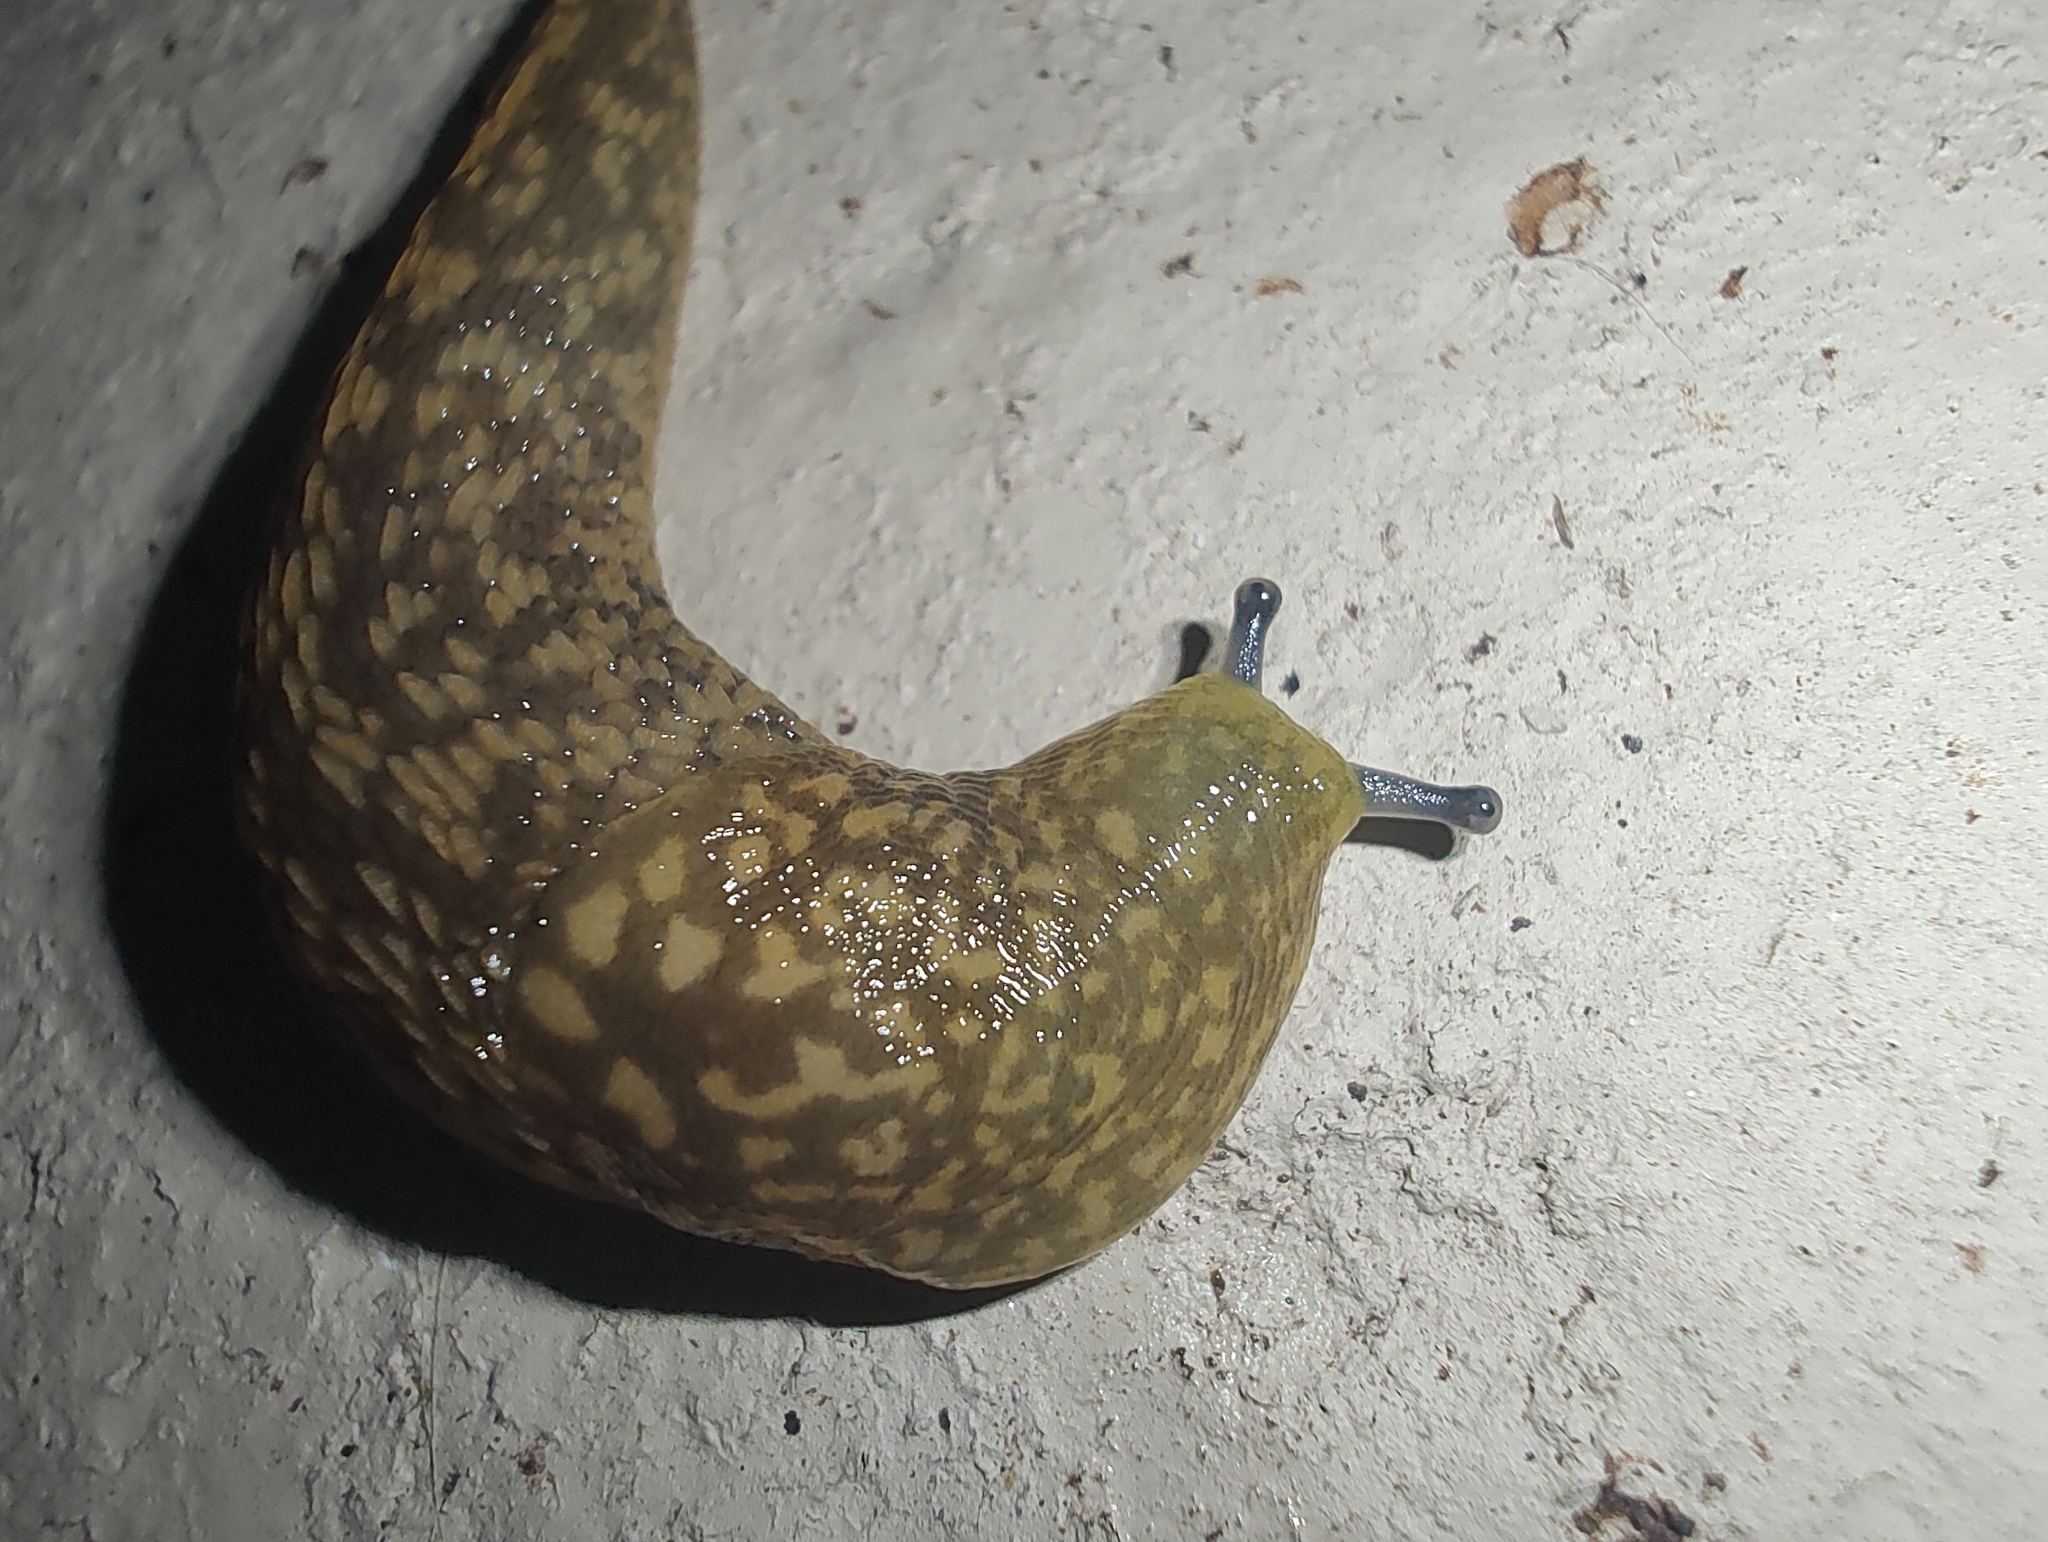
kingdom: Animalia
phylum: Mollusca
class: Gastropoda
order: Stylommatophora
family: Limacidae
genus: Limacus
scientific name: Limacus flavus
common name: Yellow gardenslug
